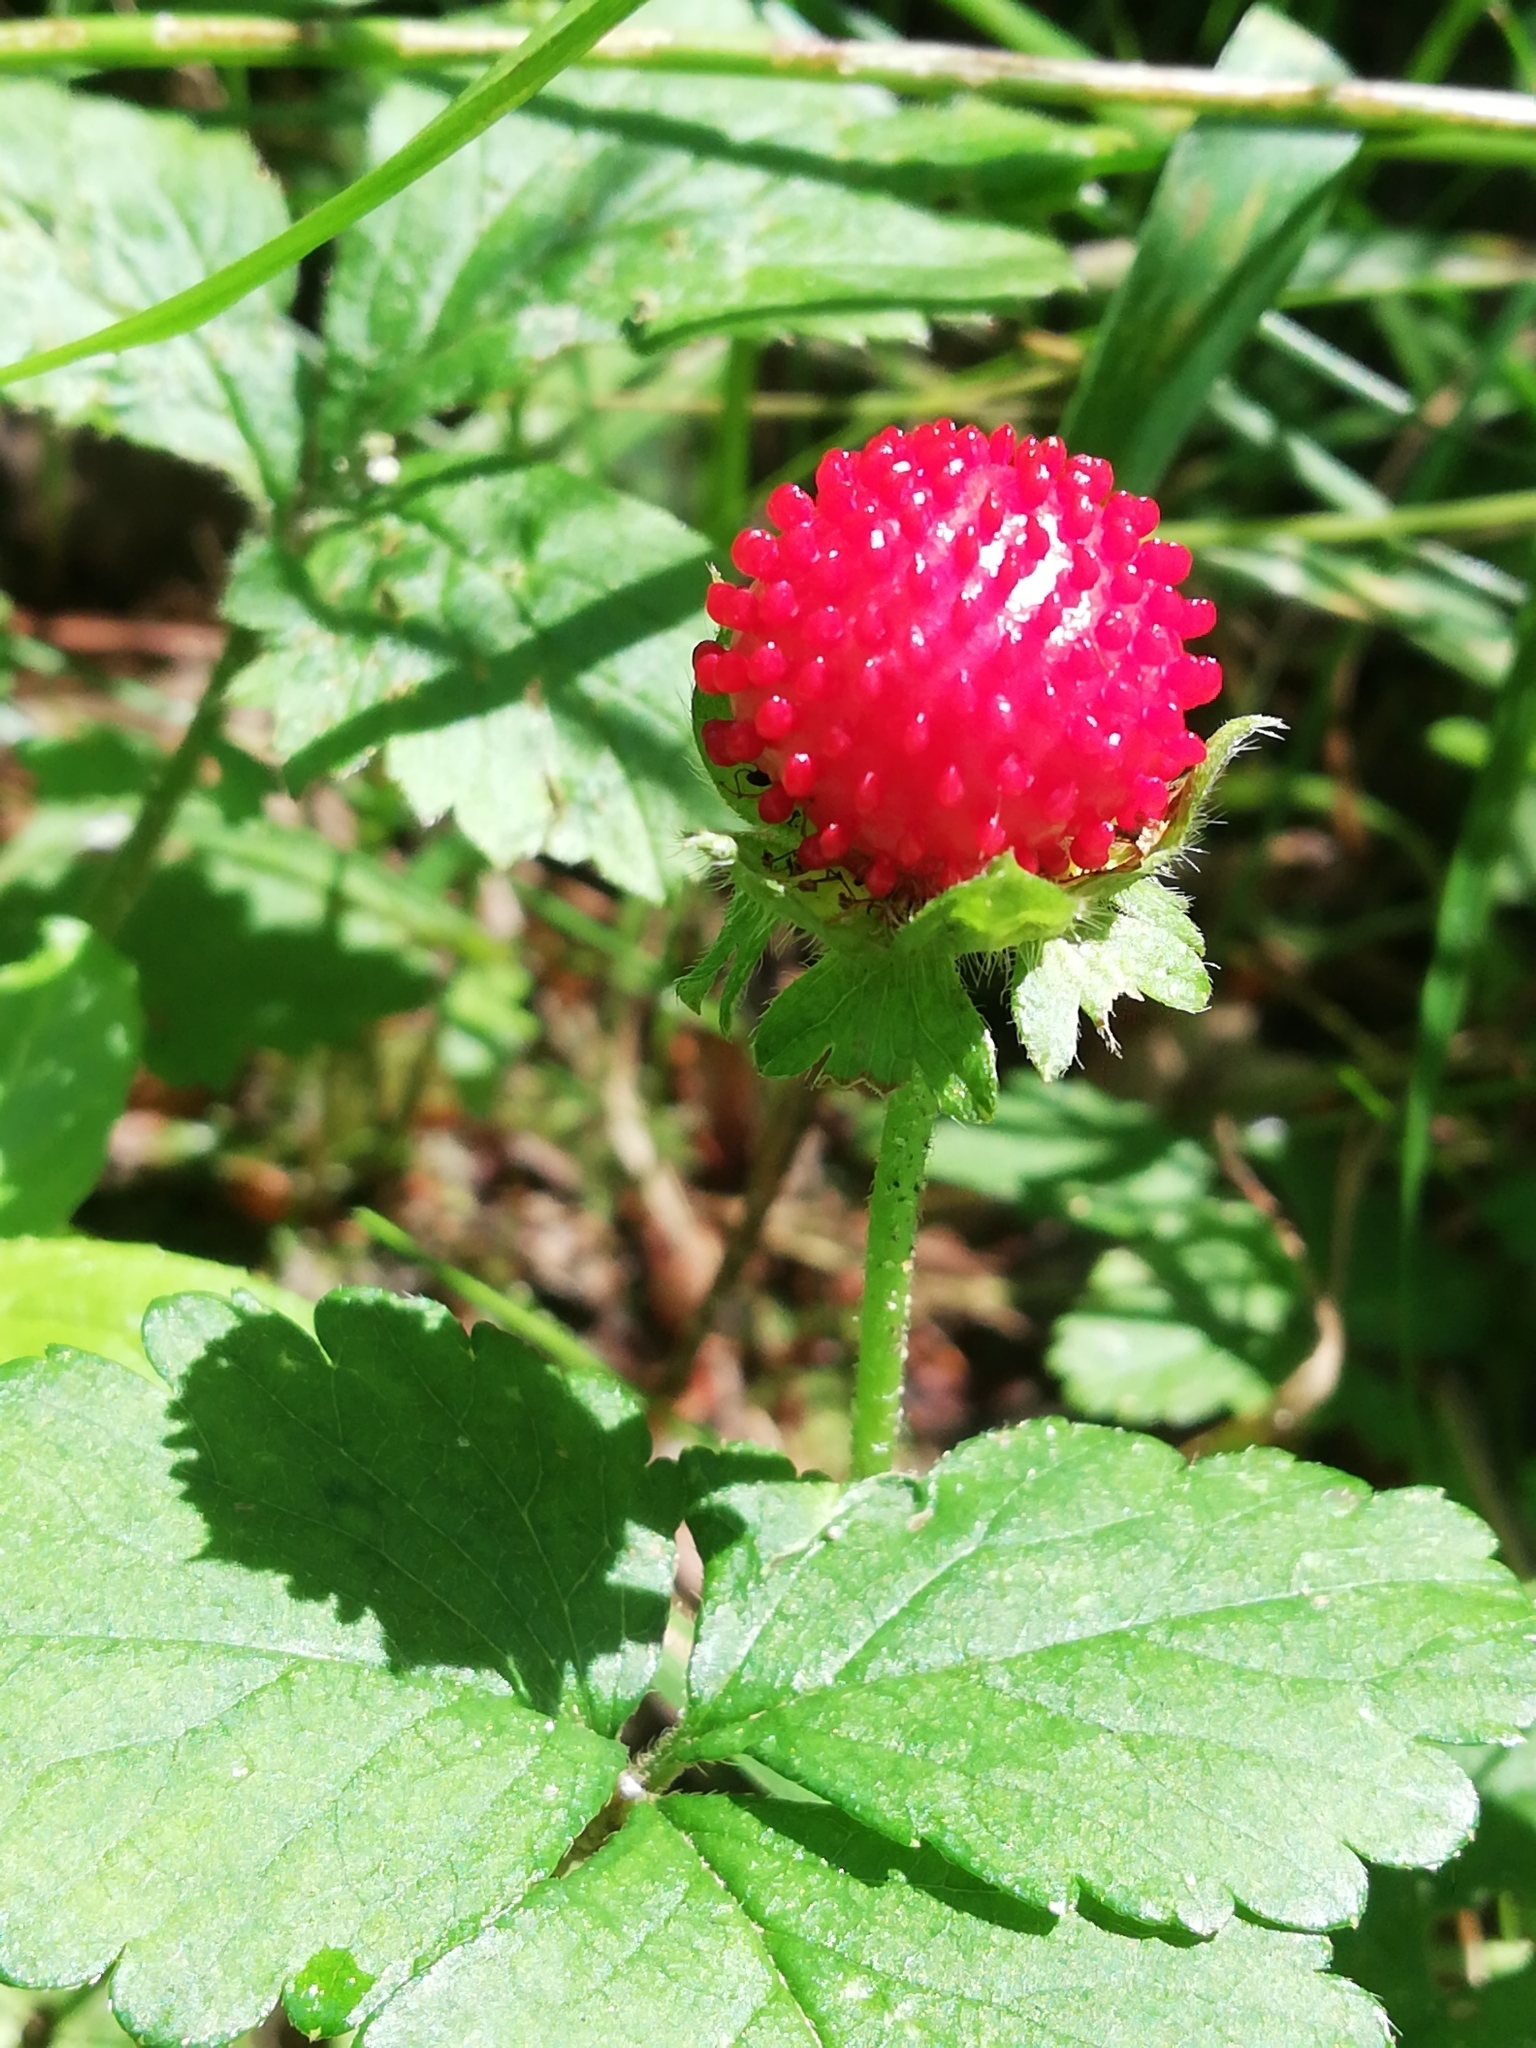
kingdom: Plantae
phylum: Tracheophyta
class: Magnoliopsida
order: Rosales
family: Rosaceae
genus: Potentilla
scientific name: Potentilla indica
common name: Yellow-flowered strawberry
